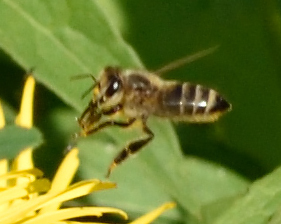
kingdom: Animalia
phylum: Arthropoda
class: Insecta
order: Hymenoptera
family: Apidae
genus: Apis
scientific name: Apis mellifera
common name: Honey bee
